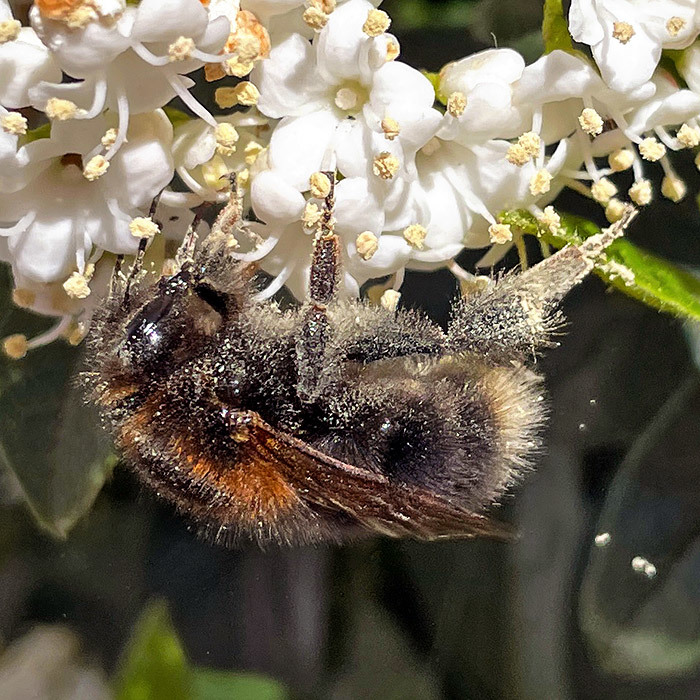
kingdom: Animalia
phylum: Arthropoda
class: Insecta
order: Hymenoptera
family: Apidae
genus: Bombus
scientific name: Bombus hypnorum
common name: New garden bumblebee
